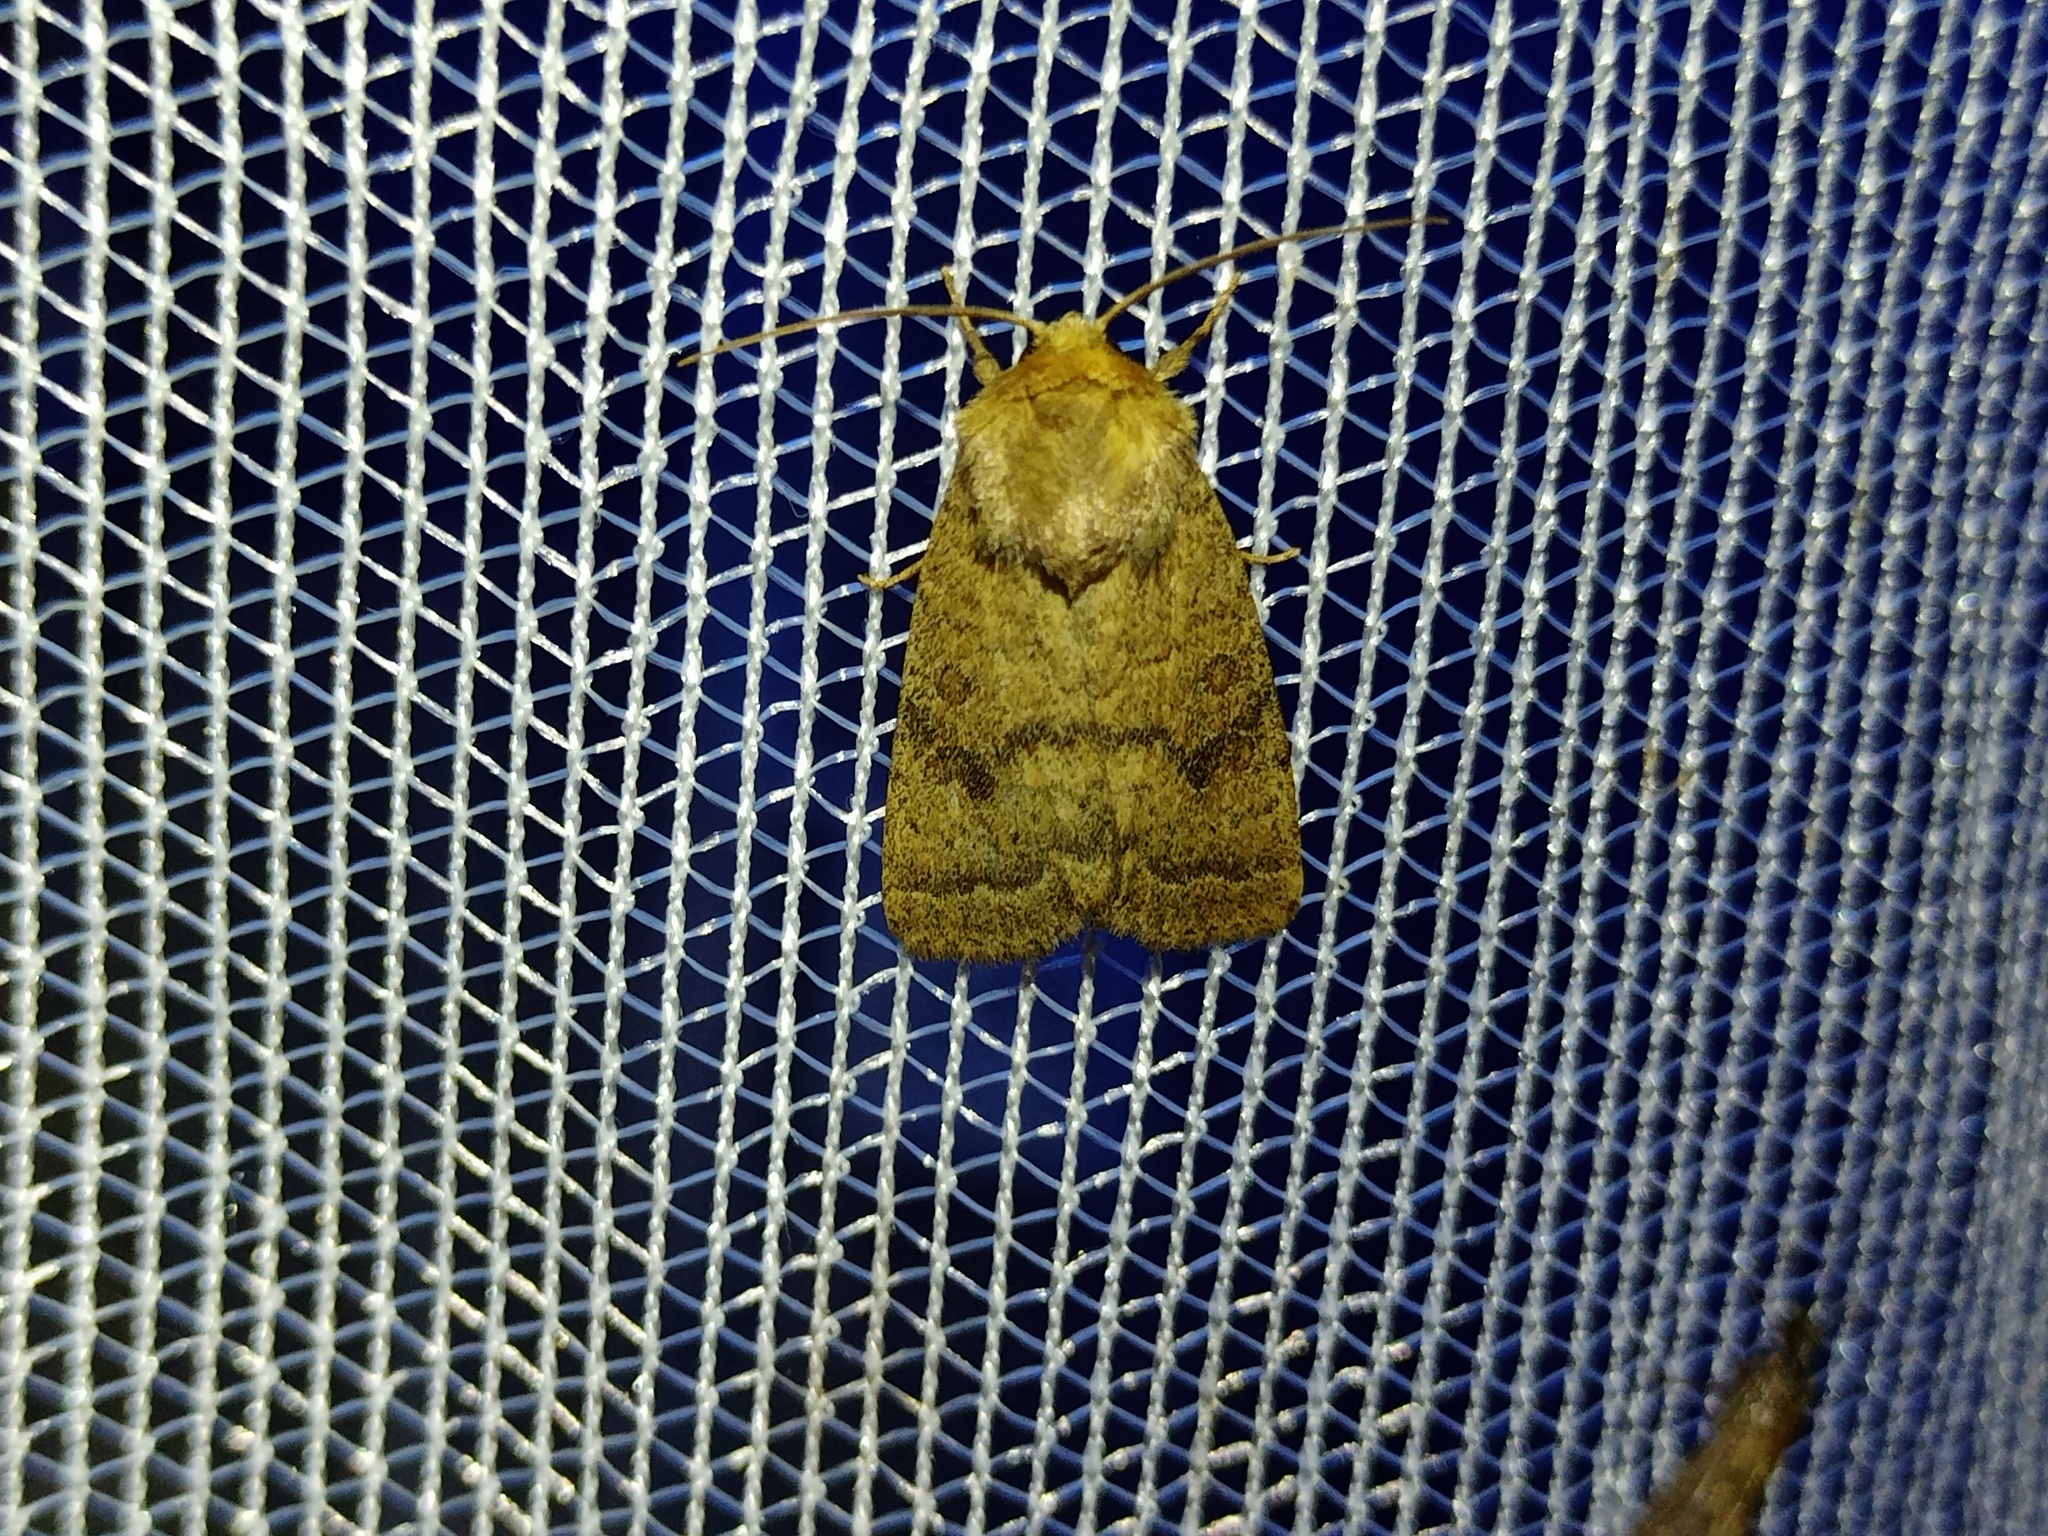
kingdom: Animalia
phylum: Arthropoda
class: Insecta
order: Lepidoptera
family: Noctuidae
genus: Hoplodrina
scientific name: Hoplodrina octogenaria
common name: Uncertain
